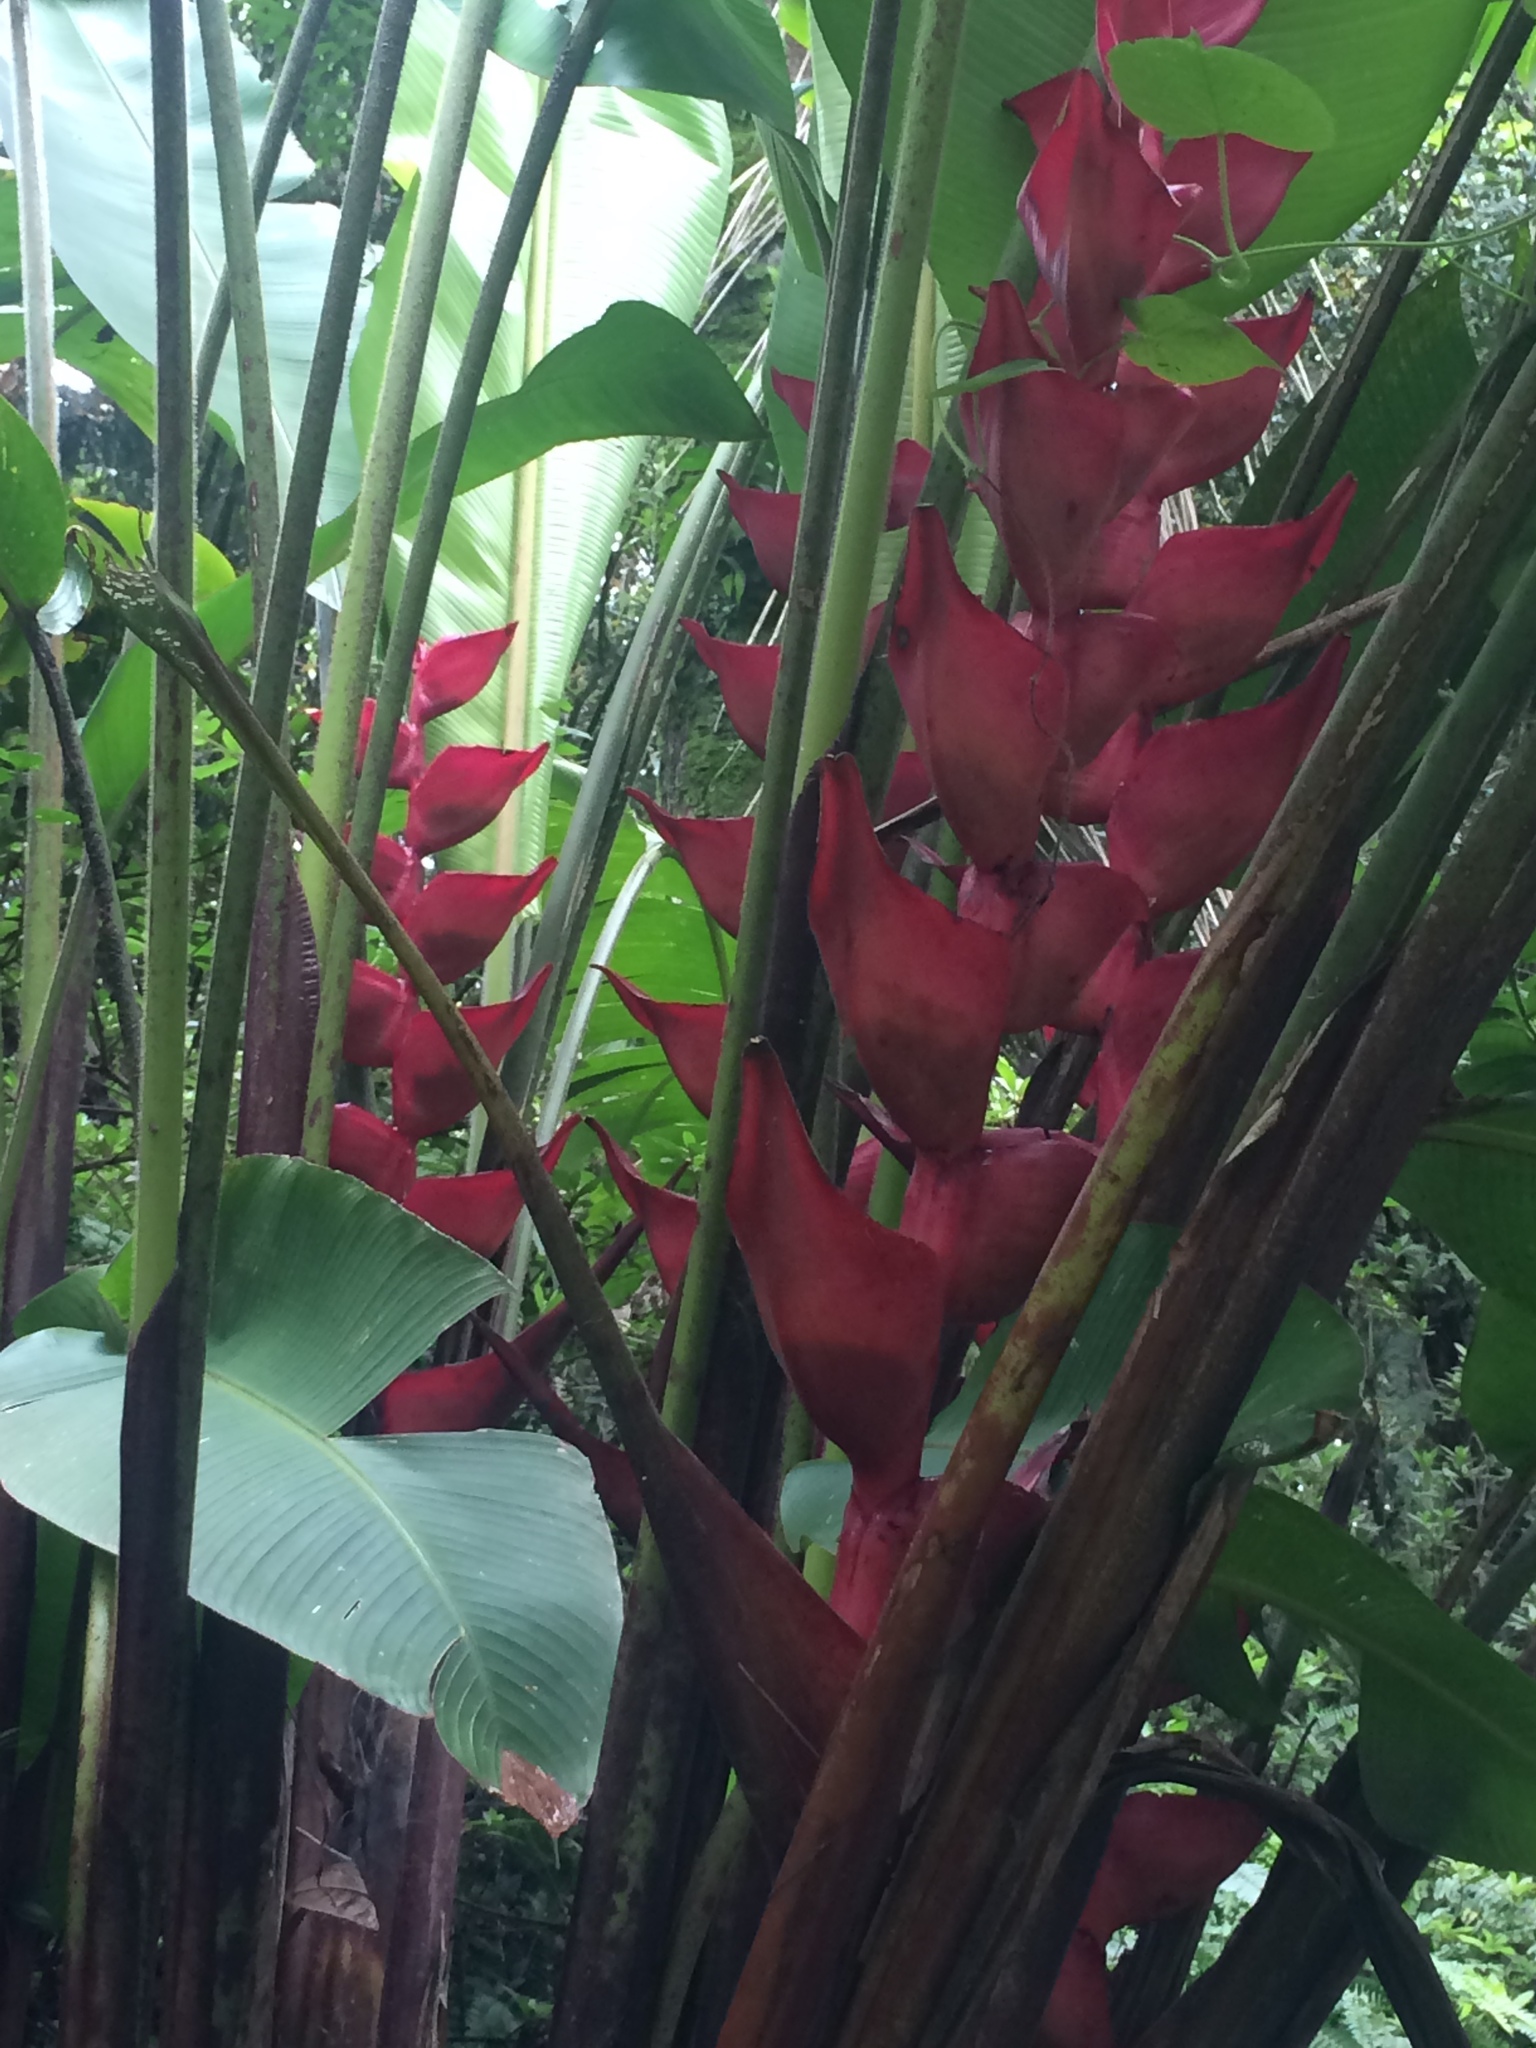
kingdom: Plantae
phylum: Tracheophyta
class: Liliopsida
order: Zingiberales
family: Heliconiaceae
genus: Heliconia
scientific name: Heliconia bourgaeana
